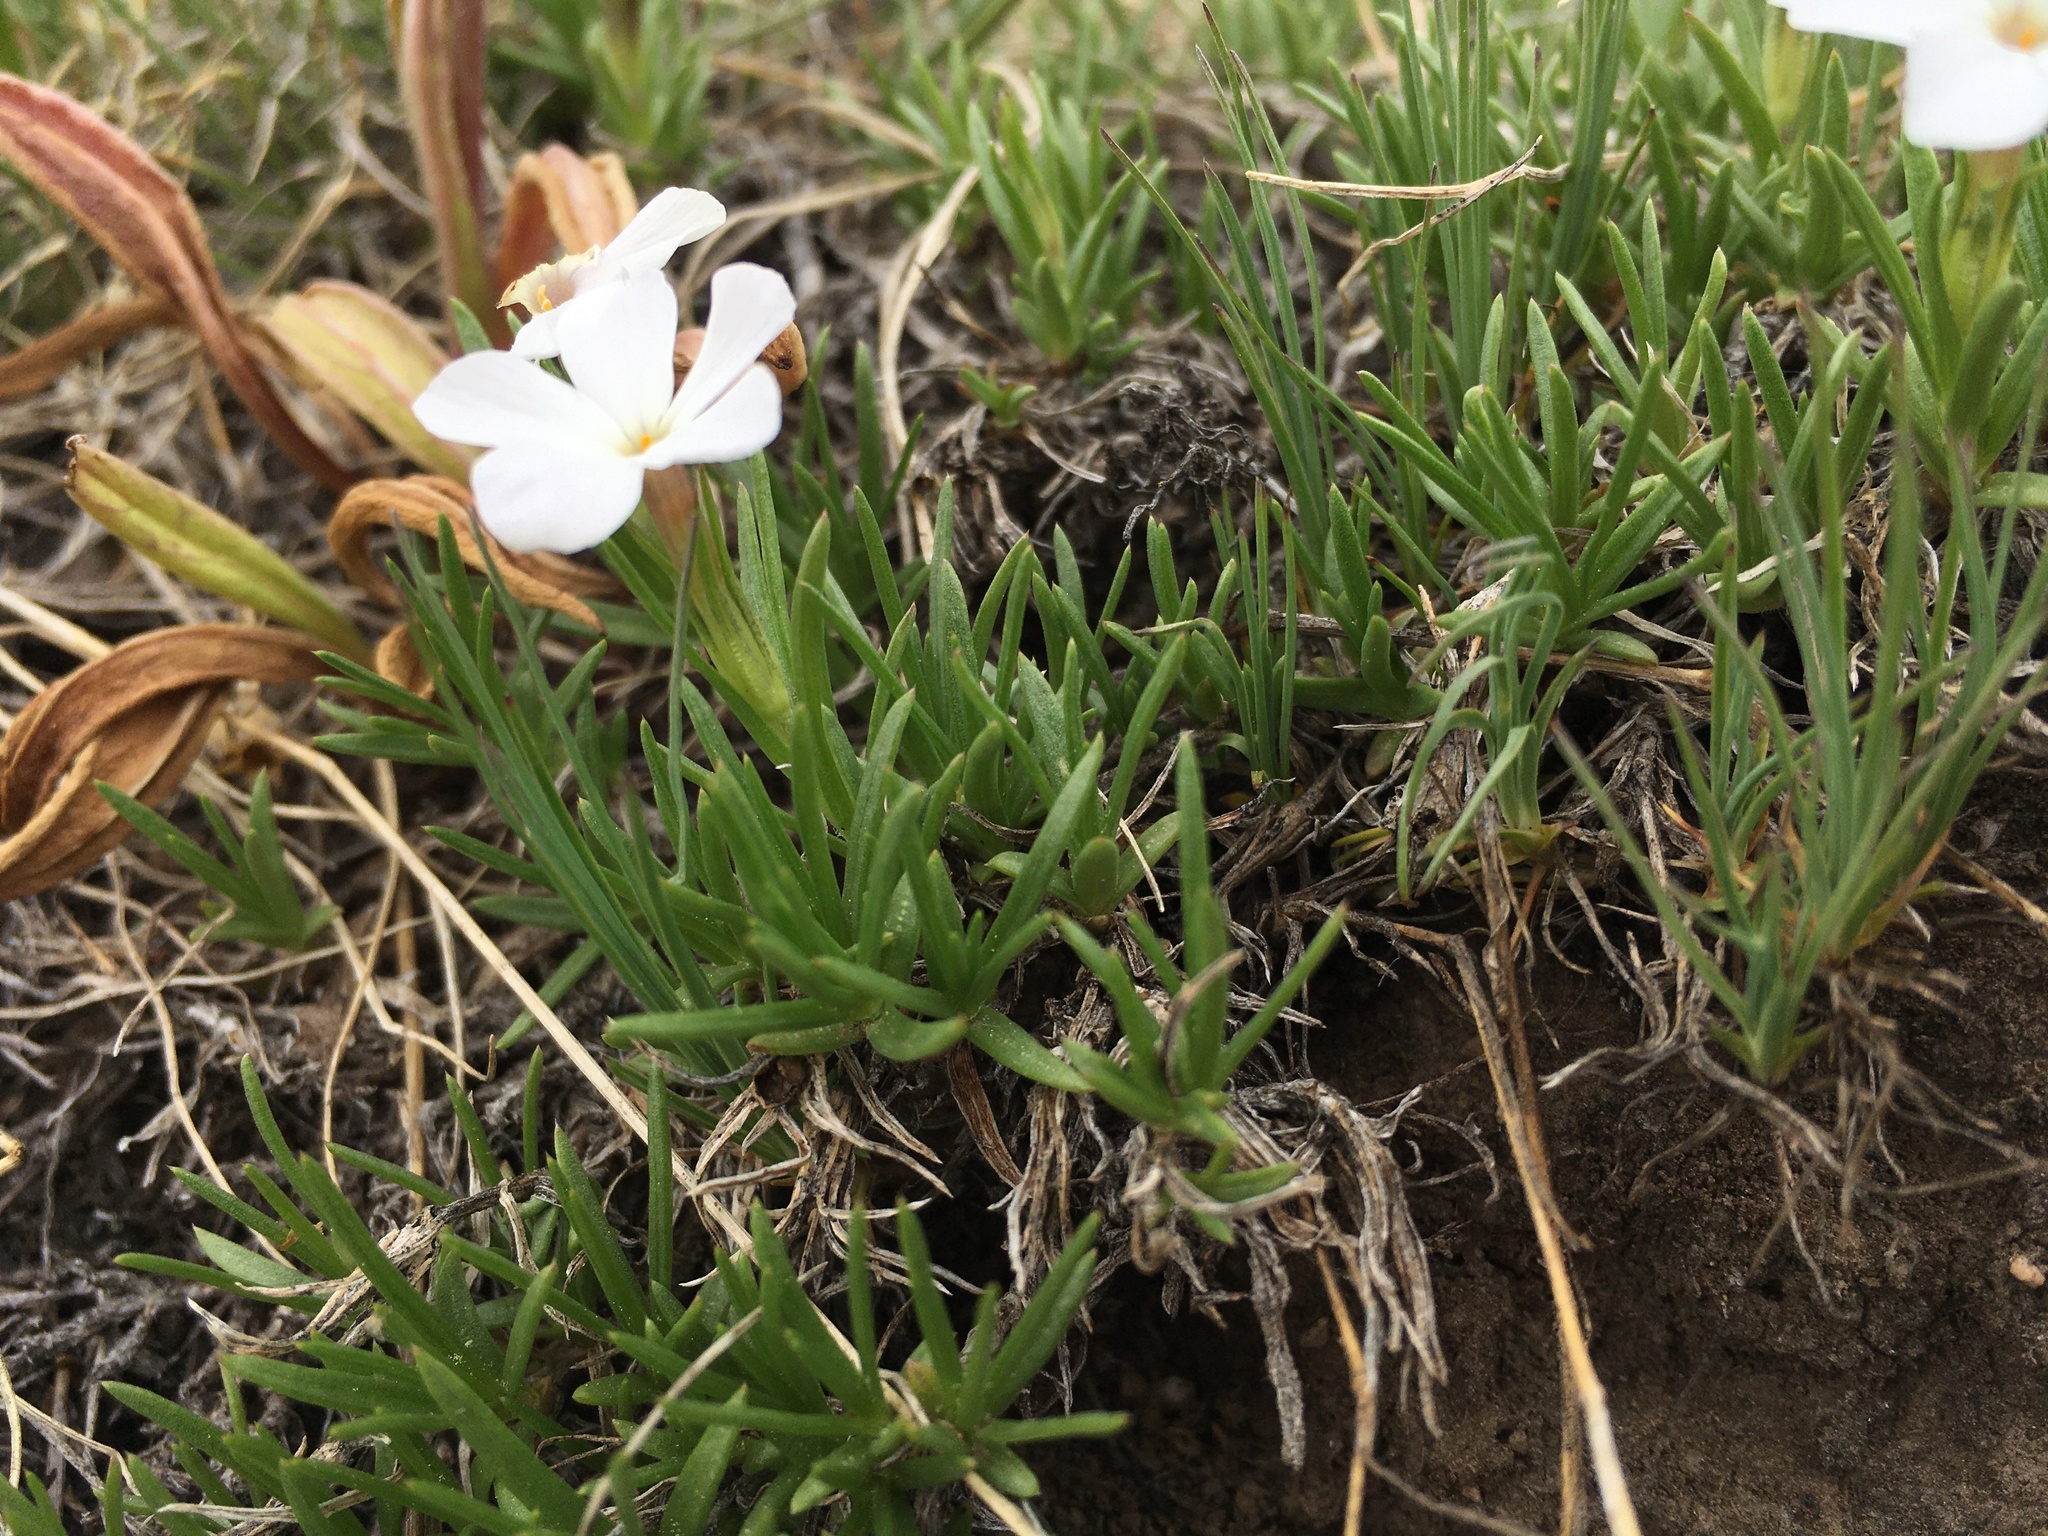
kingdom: Plantae
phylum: Tracheophyta
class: Magnoliopsida
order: Ericales
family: Polemoniaceae
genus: Phlox
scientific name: Phlox multiflora
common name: Rocky mountain phlox
